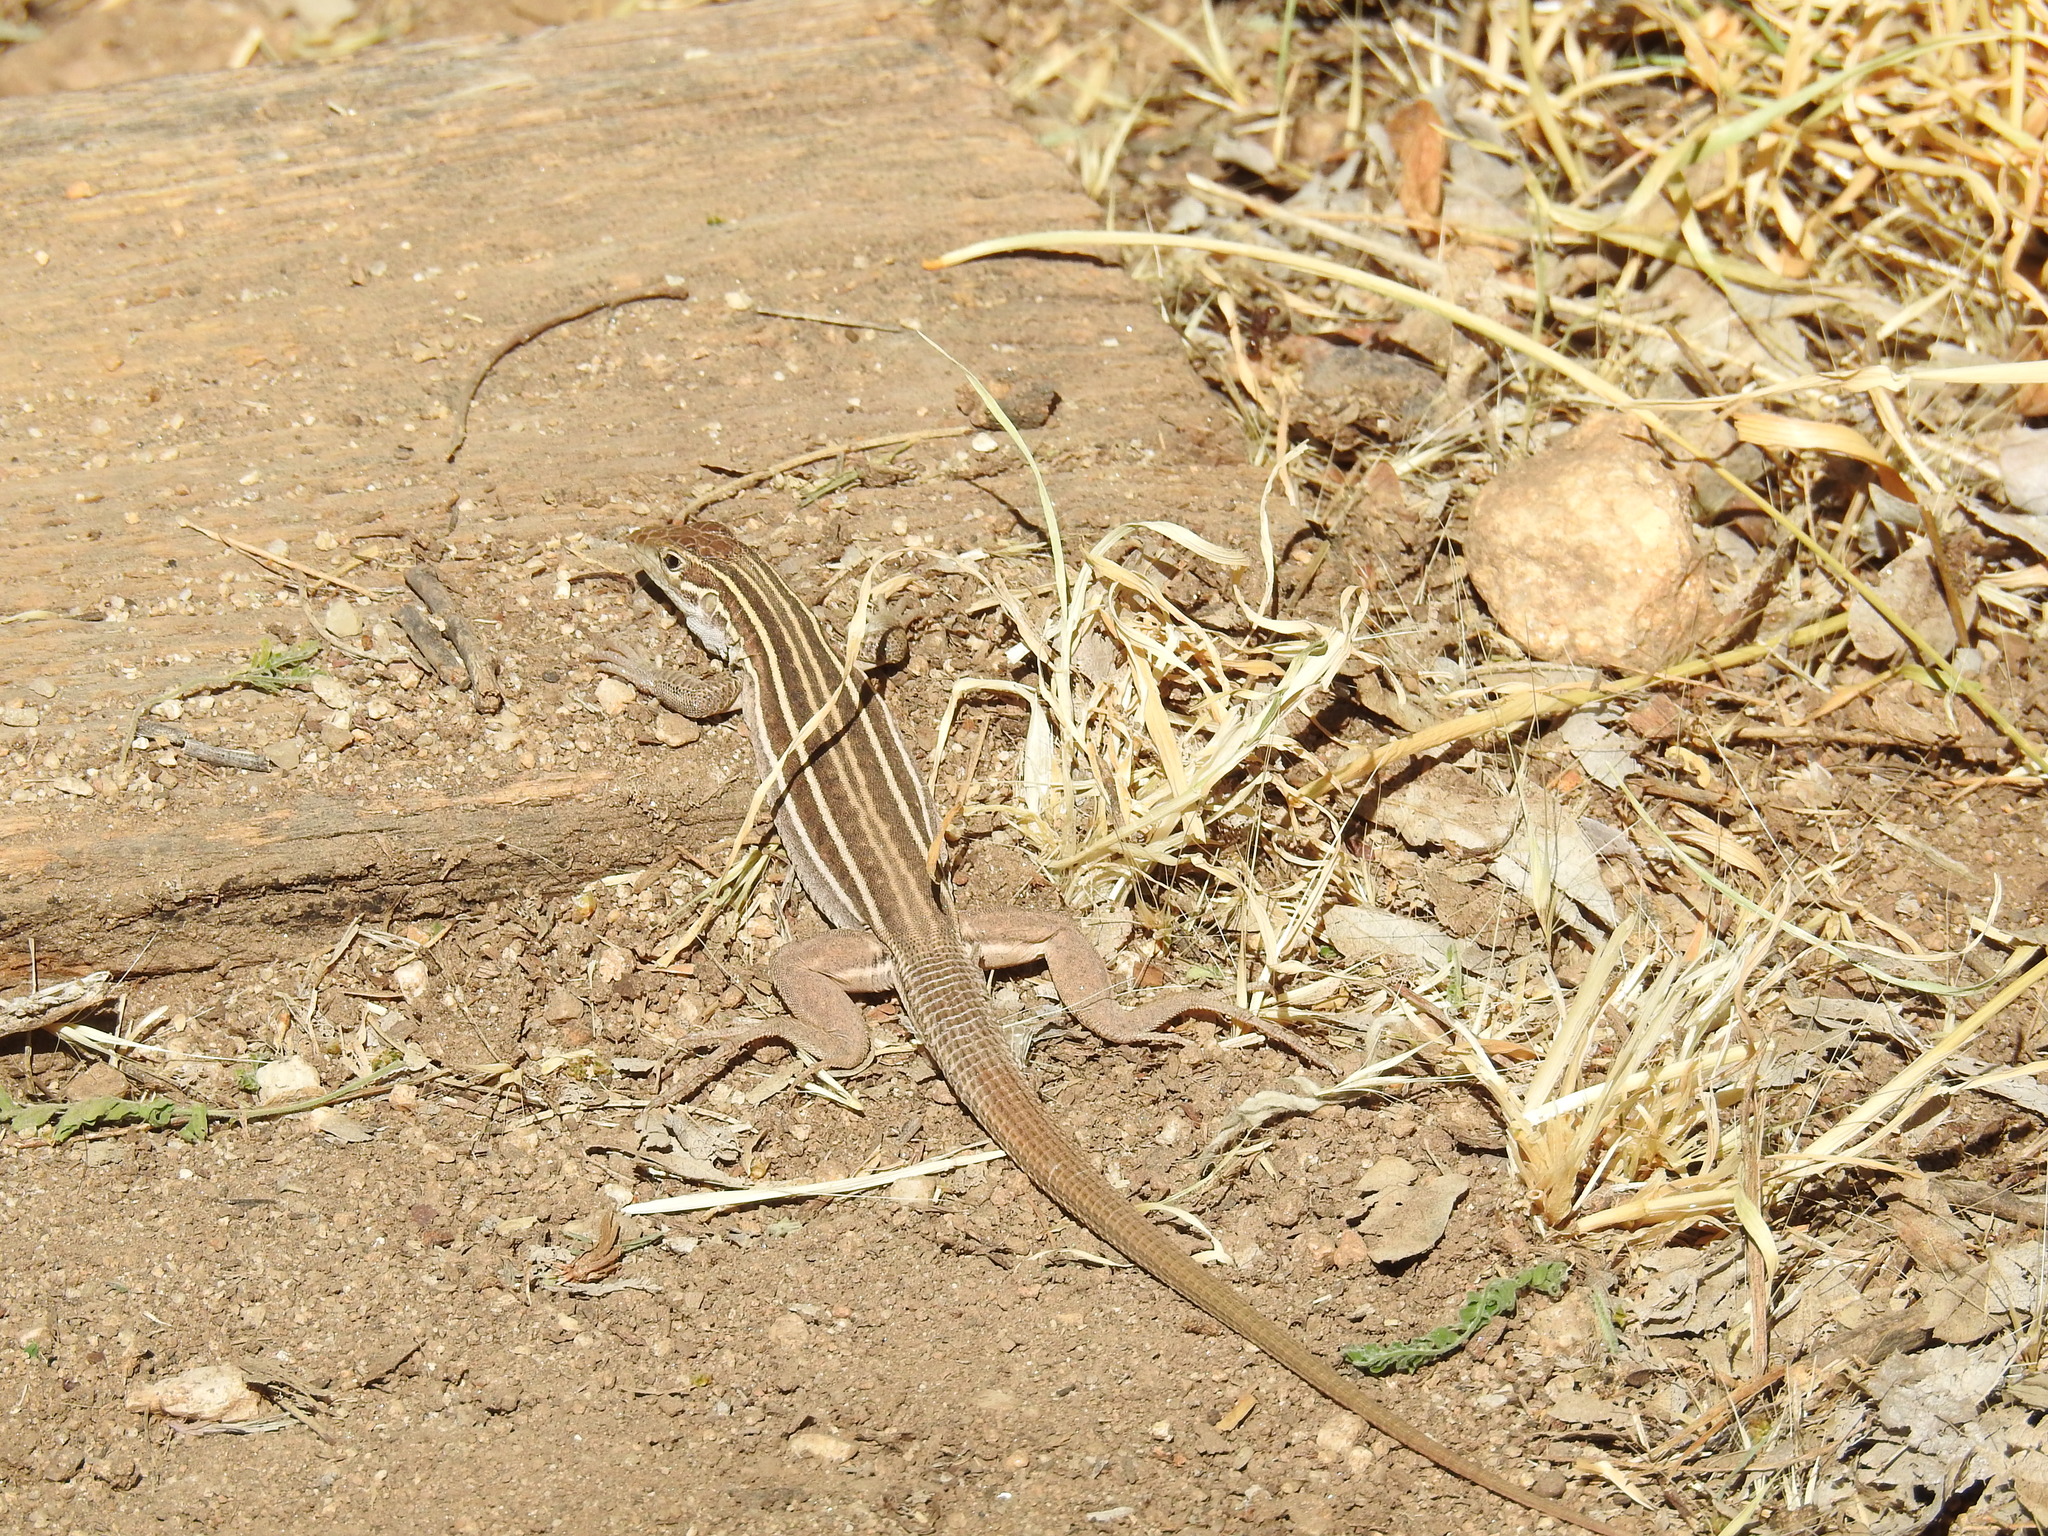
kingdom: Animalia
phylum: Chordata
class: Squamata
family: Teiidae
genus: Aspidoscelis
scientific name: Aspidoscelis sonorae
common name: Sonoran spotted whiptail
